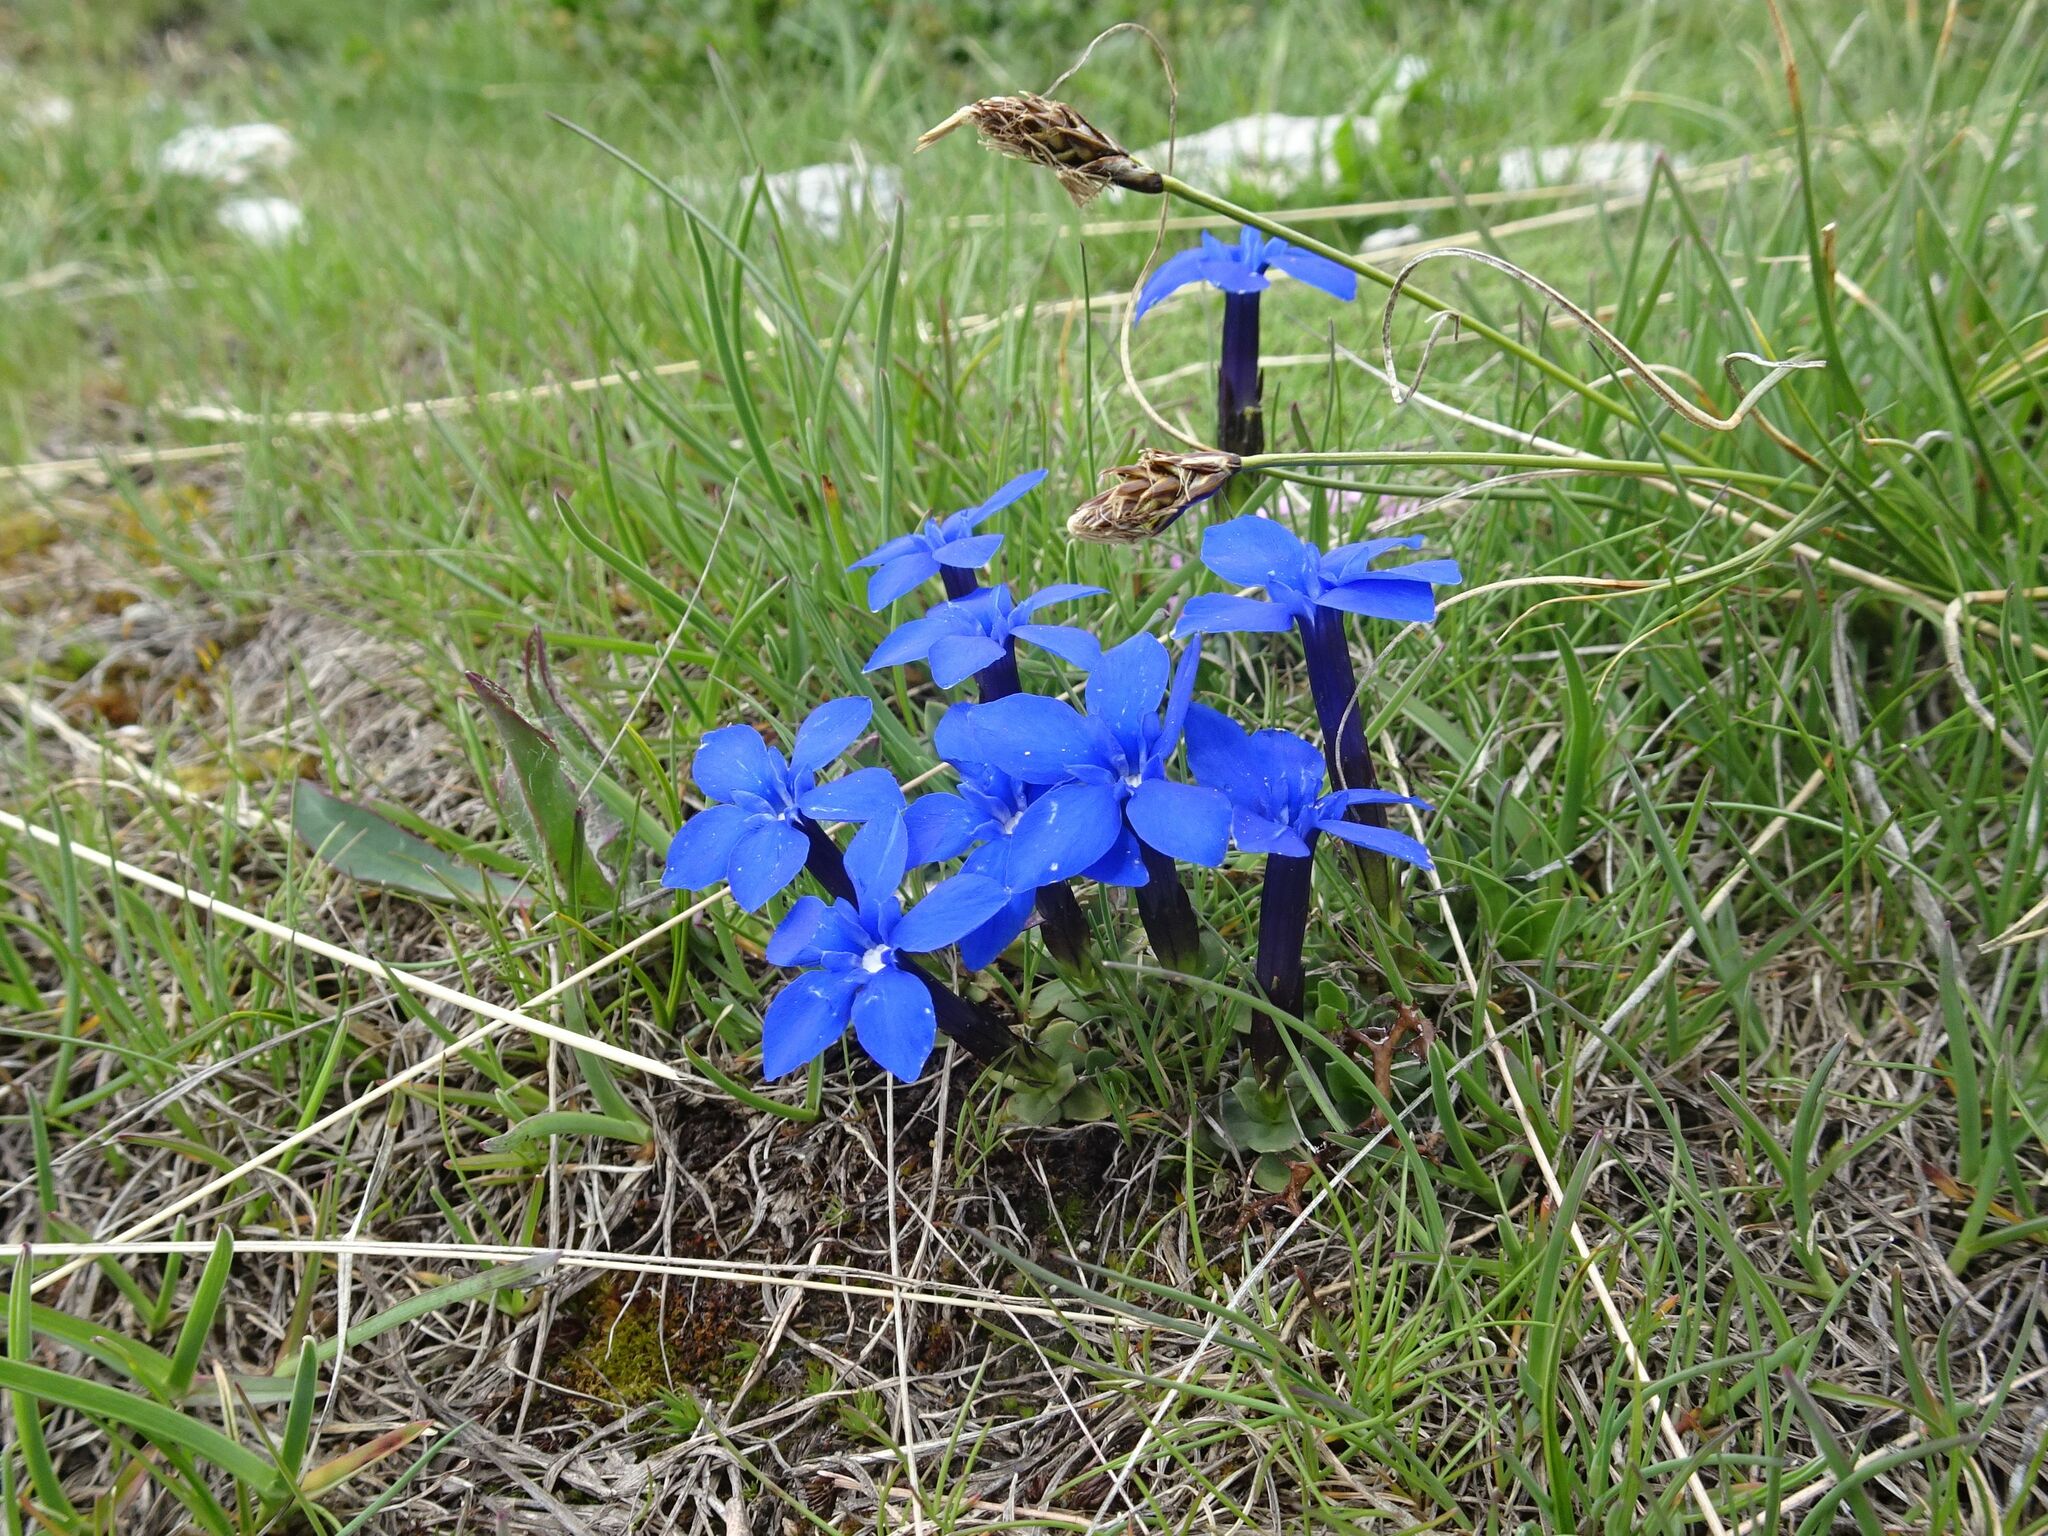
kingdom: Plantae
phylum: Tracheophyta
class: Magnoliopsida
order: Gentianales
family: Gentianaceae
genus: Gentiana
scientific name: Gentiana brachyphylla
